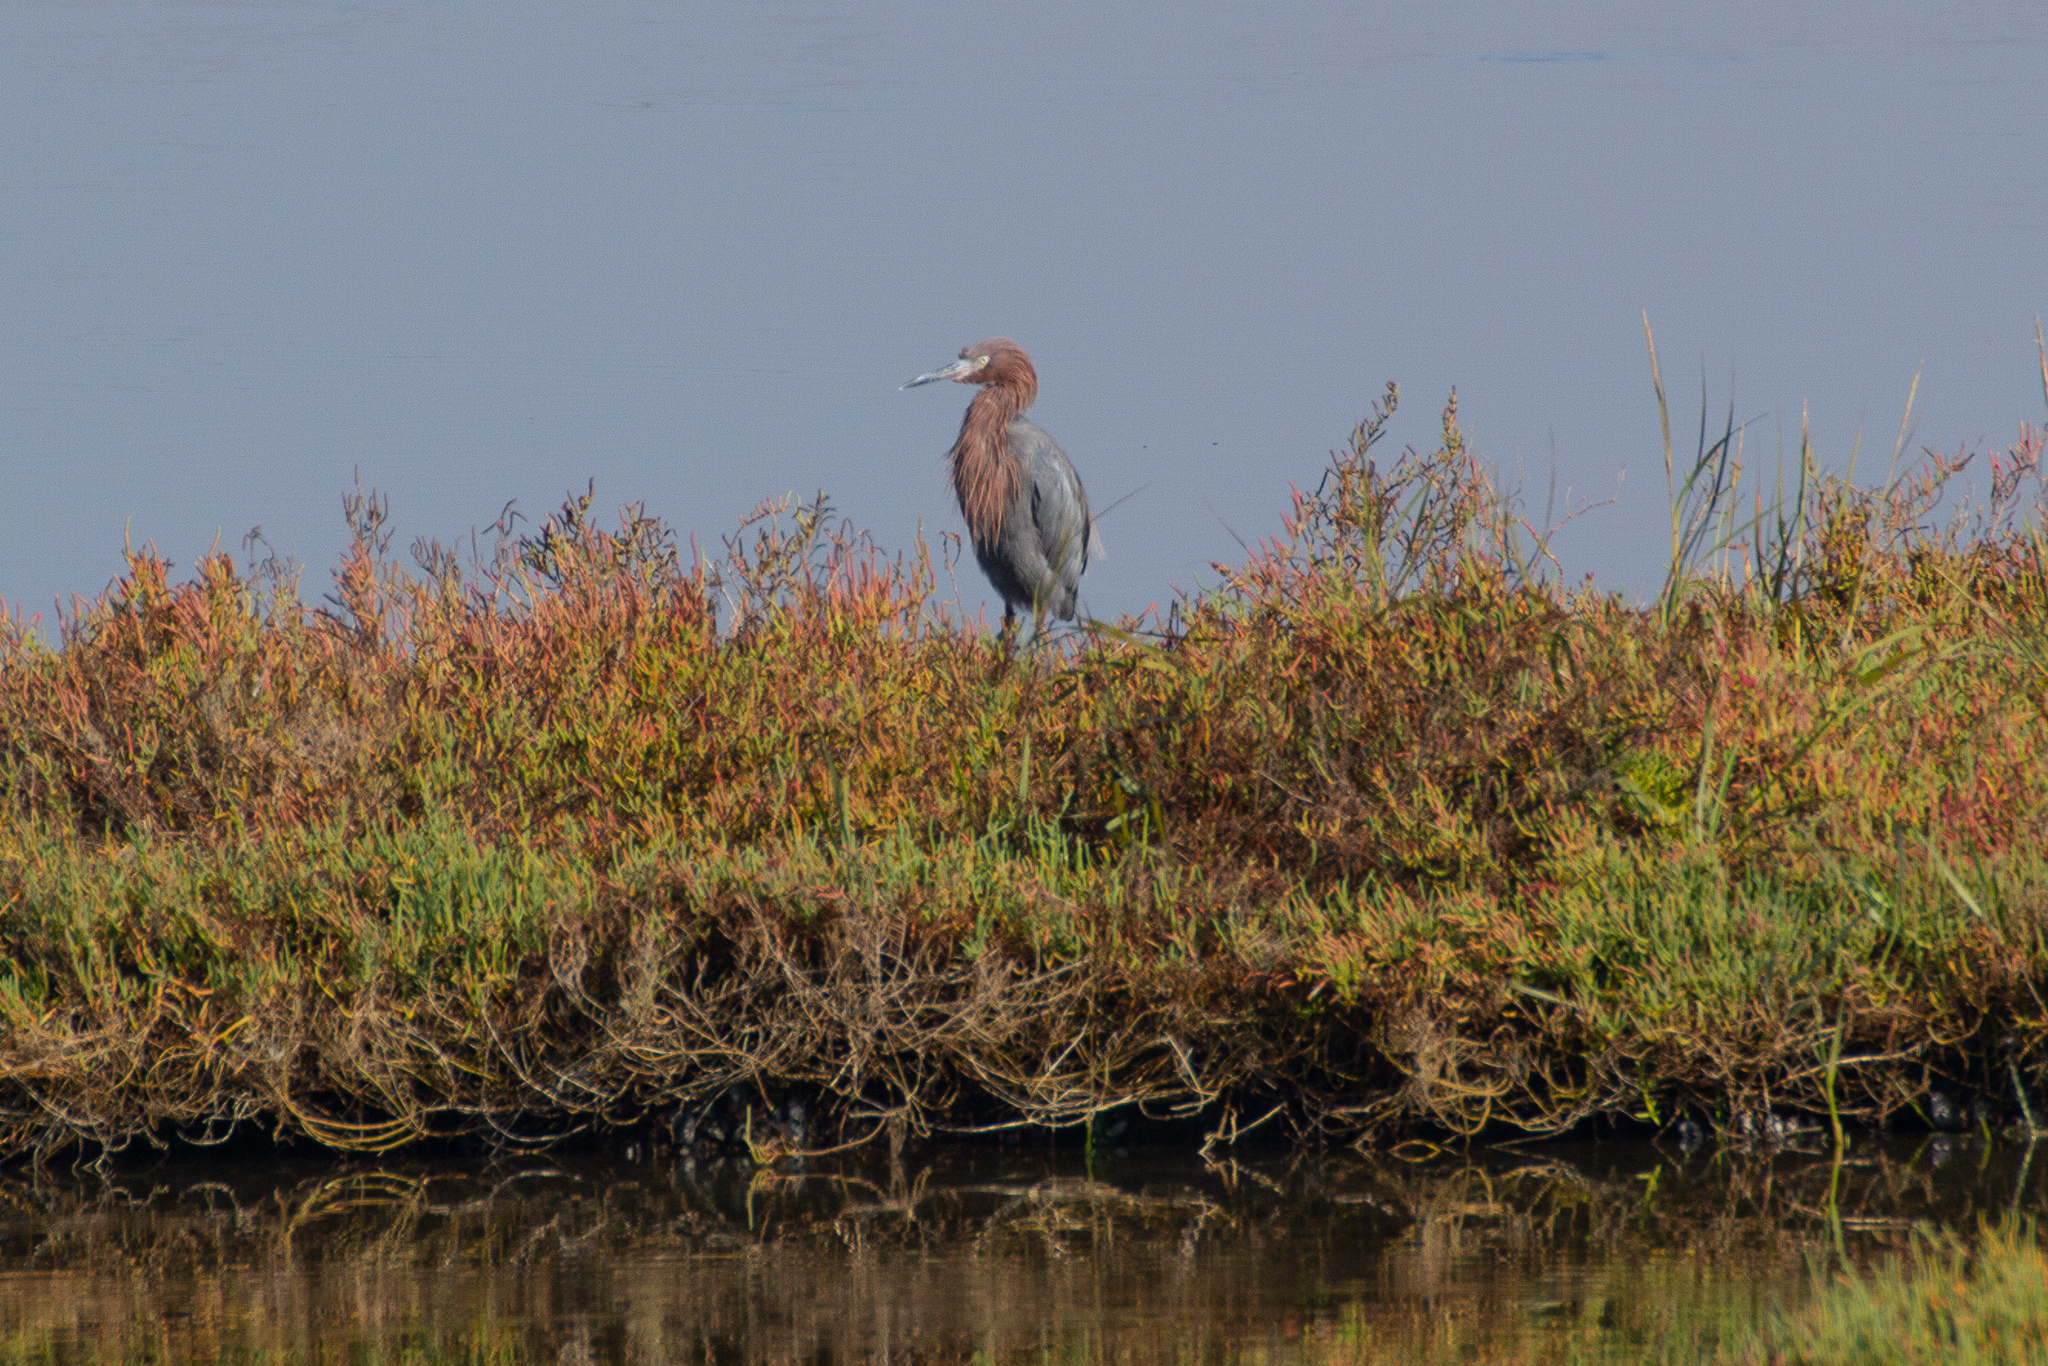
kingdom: Animalia
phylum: Chordata
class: Aves
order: Pelecaniformes
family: Ardeidae
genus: Egretta
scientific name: Egretta rufescens
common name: Reddish egret
